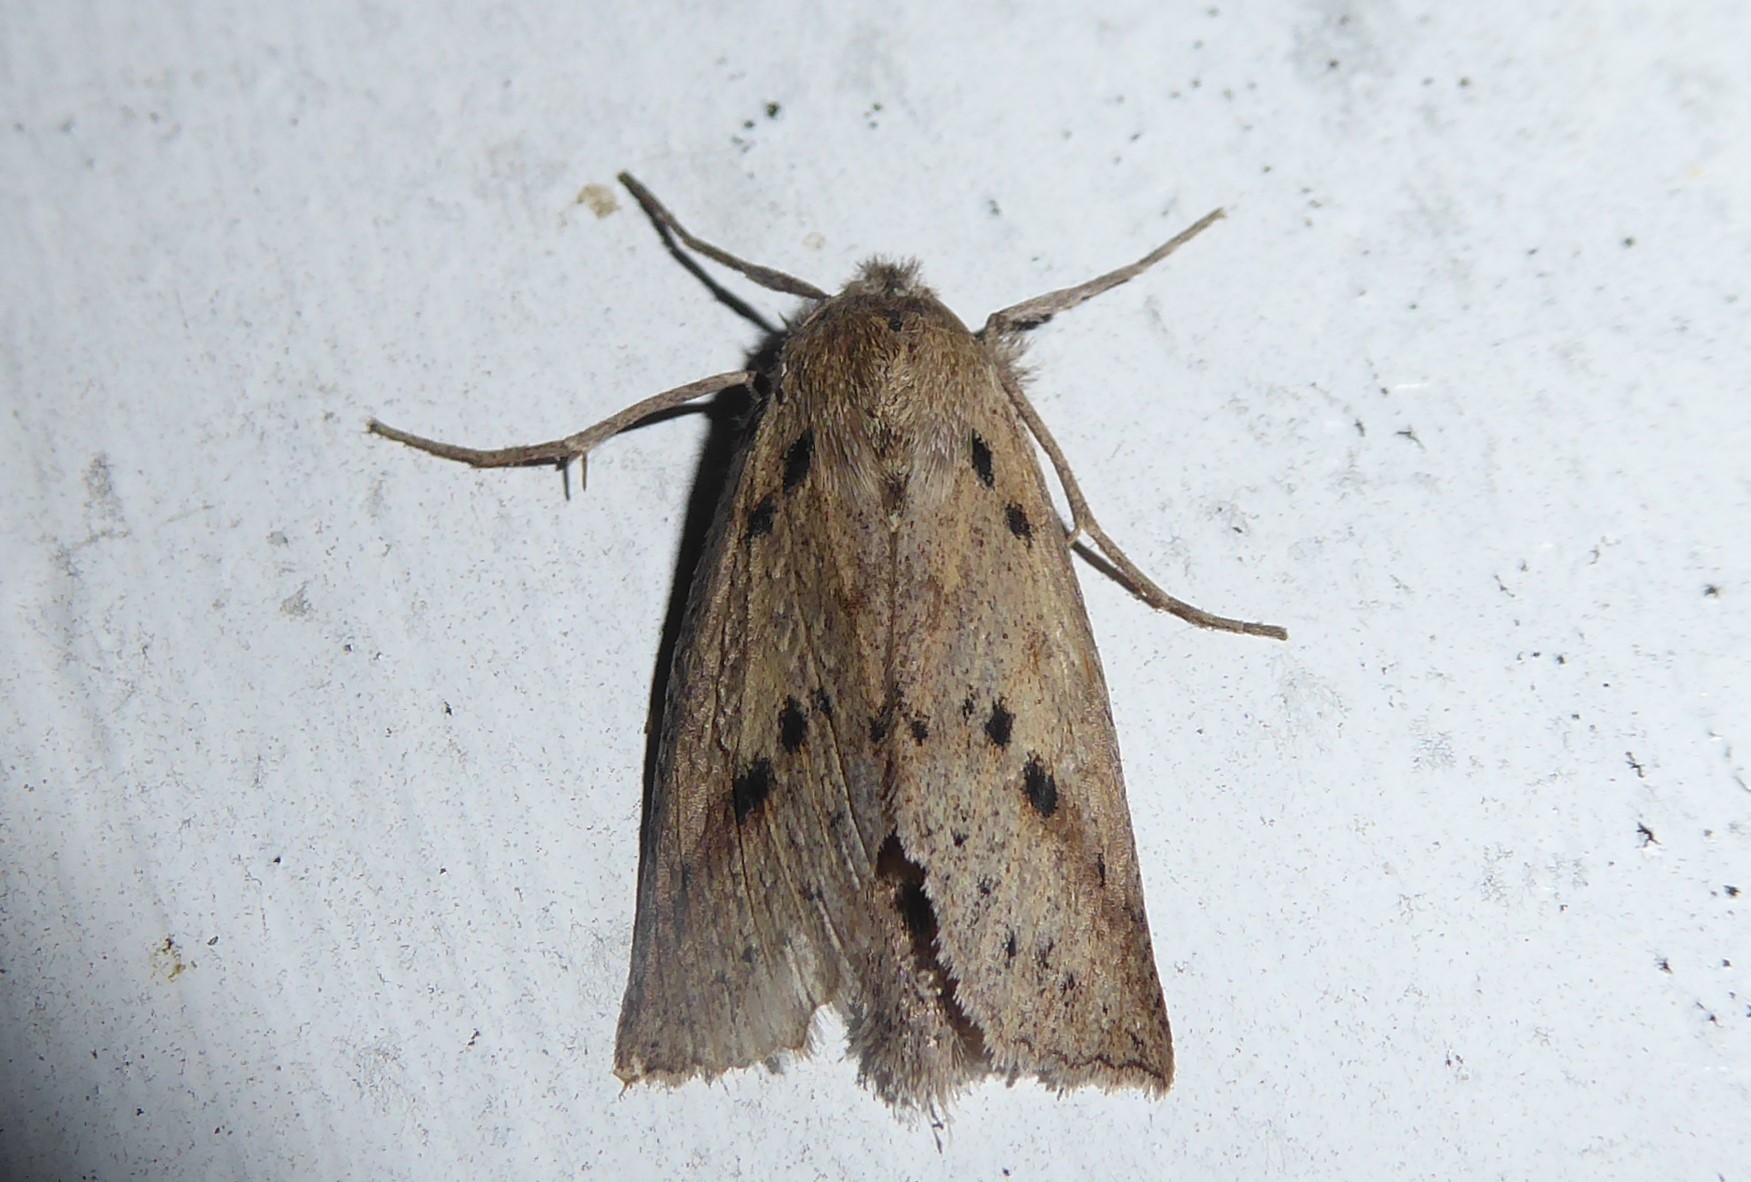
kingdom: Animalia
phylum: Arthropoda
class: Insecta
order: Lepidoptera
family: Geometridae
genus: Declana
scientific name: Declana leptomera
